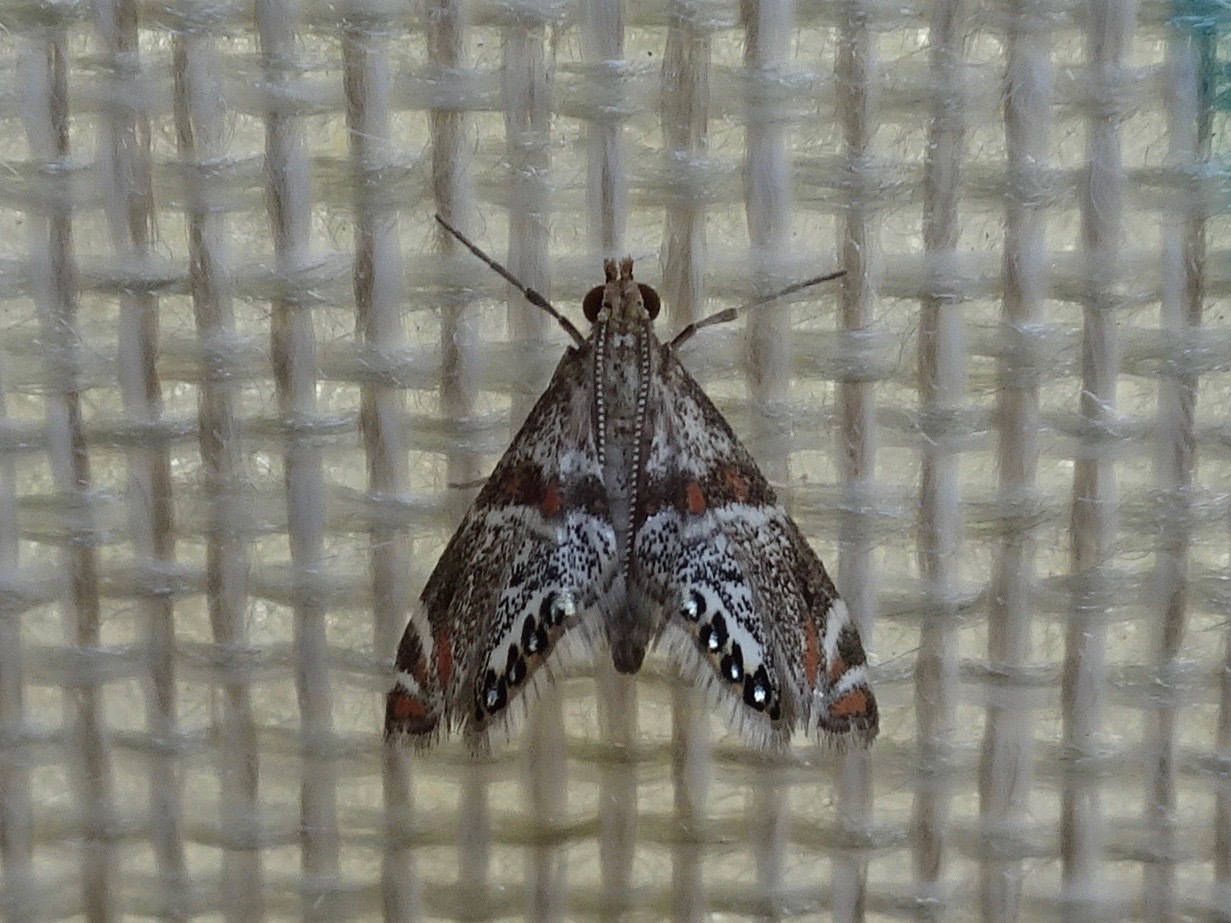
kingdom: Animalia
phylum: Arthropoda
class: Insecta
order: Lepidoptera
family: Crambidae
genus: Petrophila
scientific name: Petrophila jaliscalis
